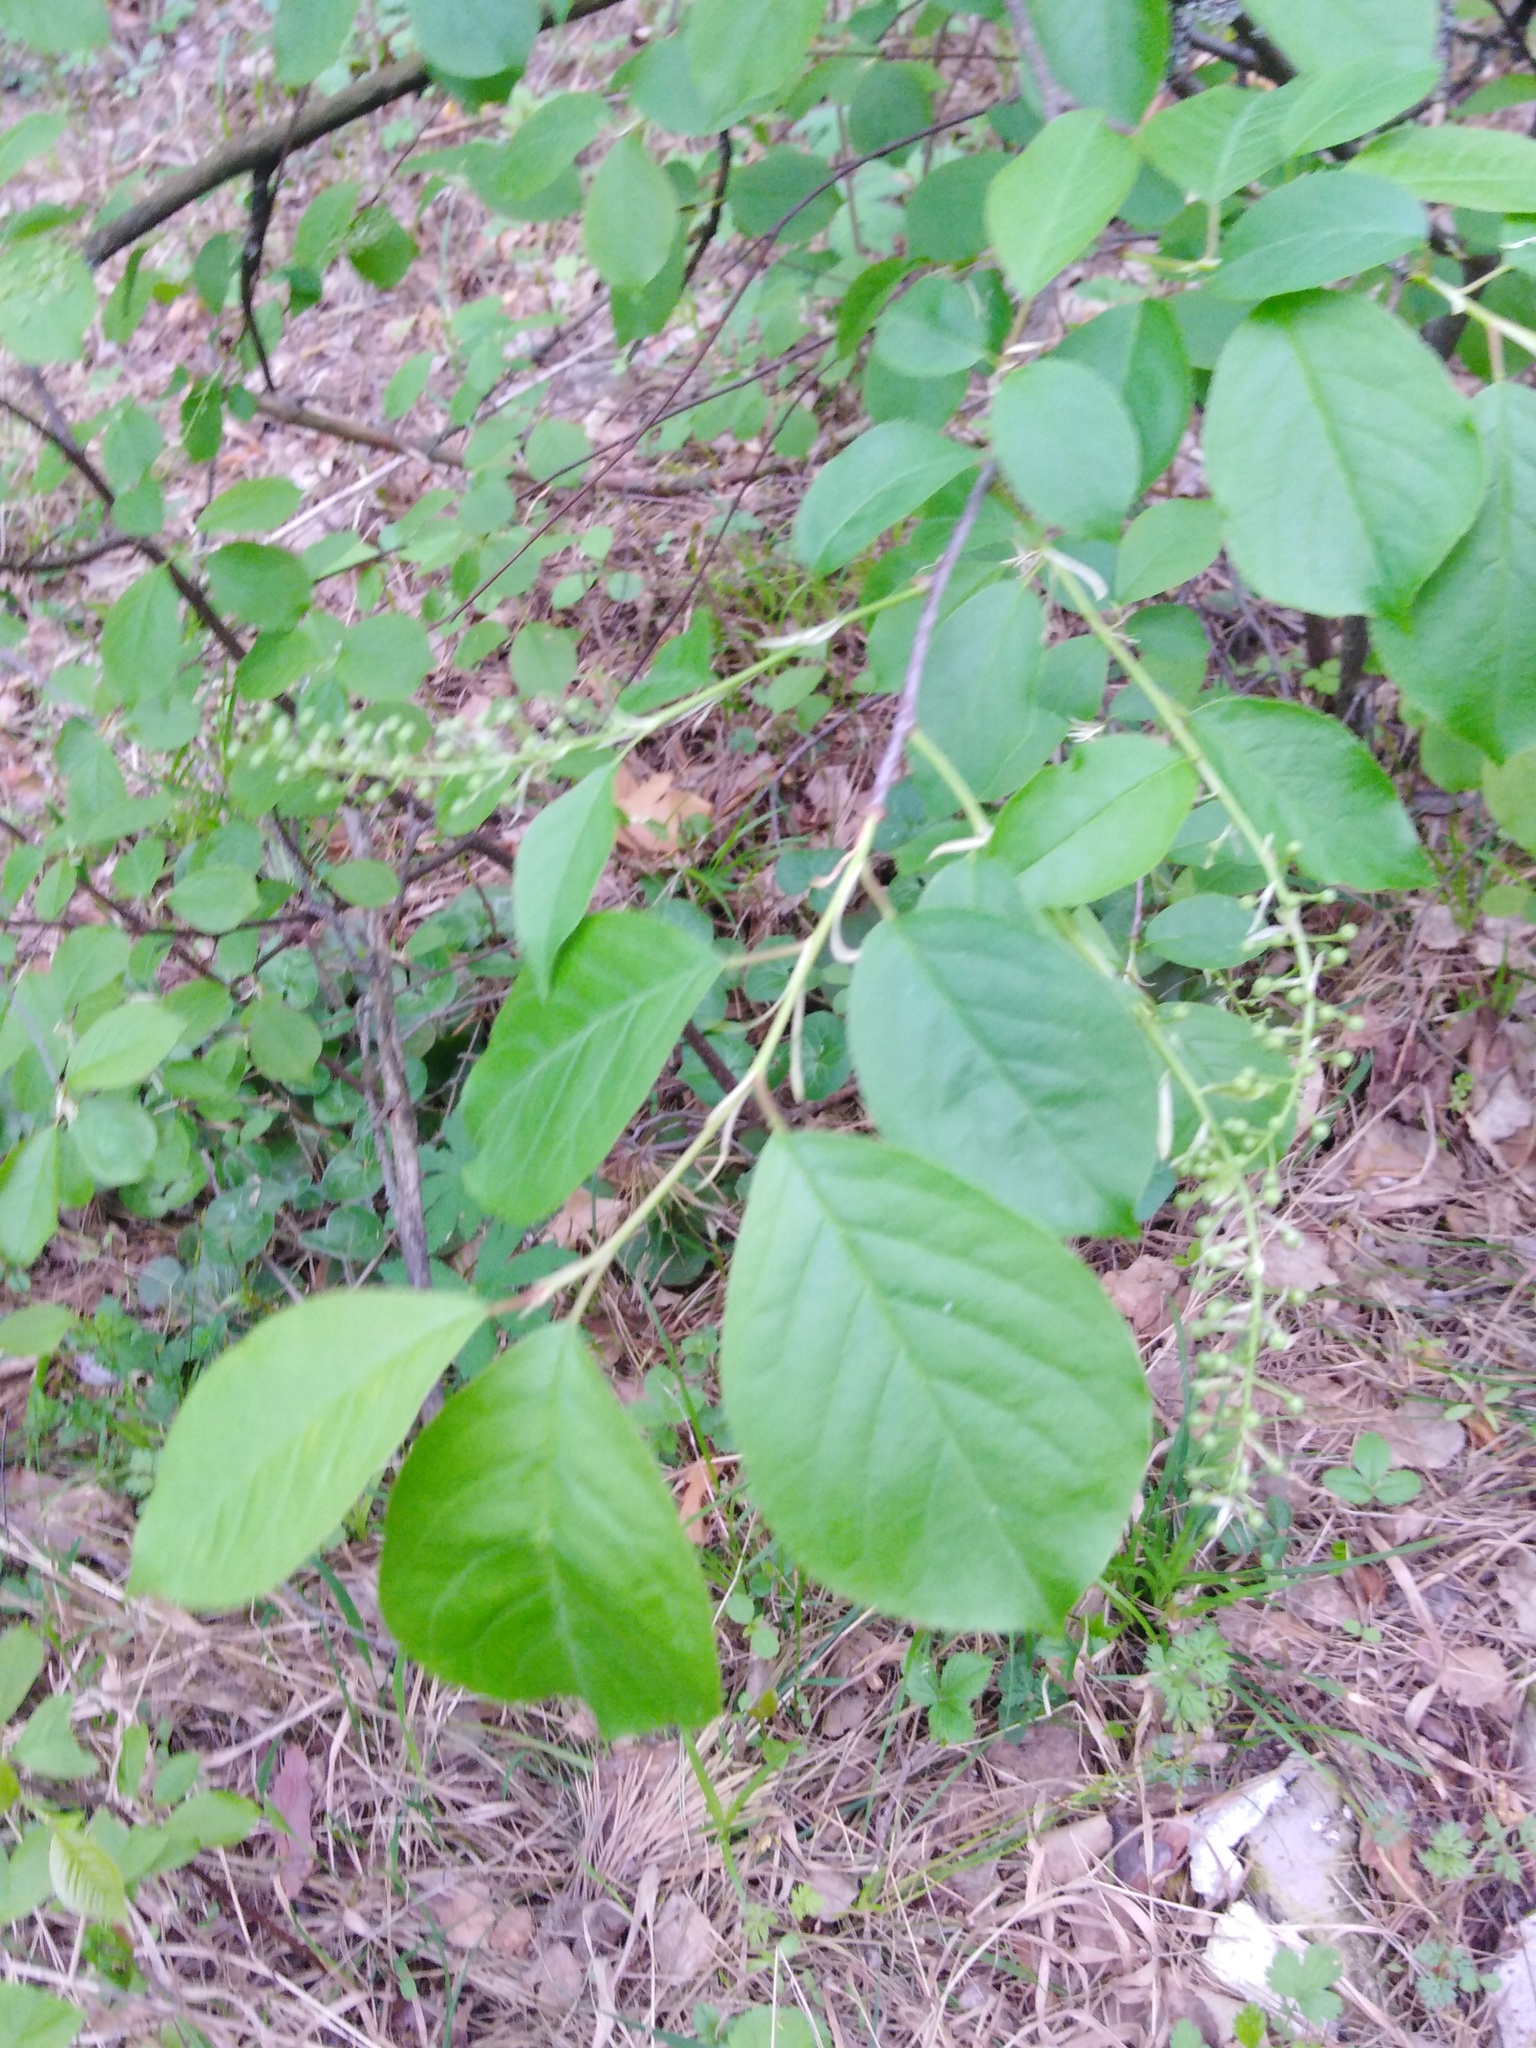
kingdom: Plantae
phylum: Tracheophyta
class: Magnoliopsida
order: Rosales
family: Rosaceae
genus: Prunus
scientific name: Prunus virginiana
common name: Chokecherry
